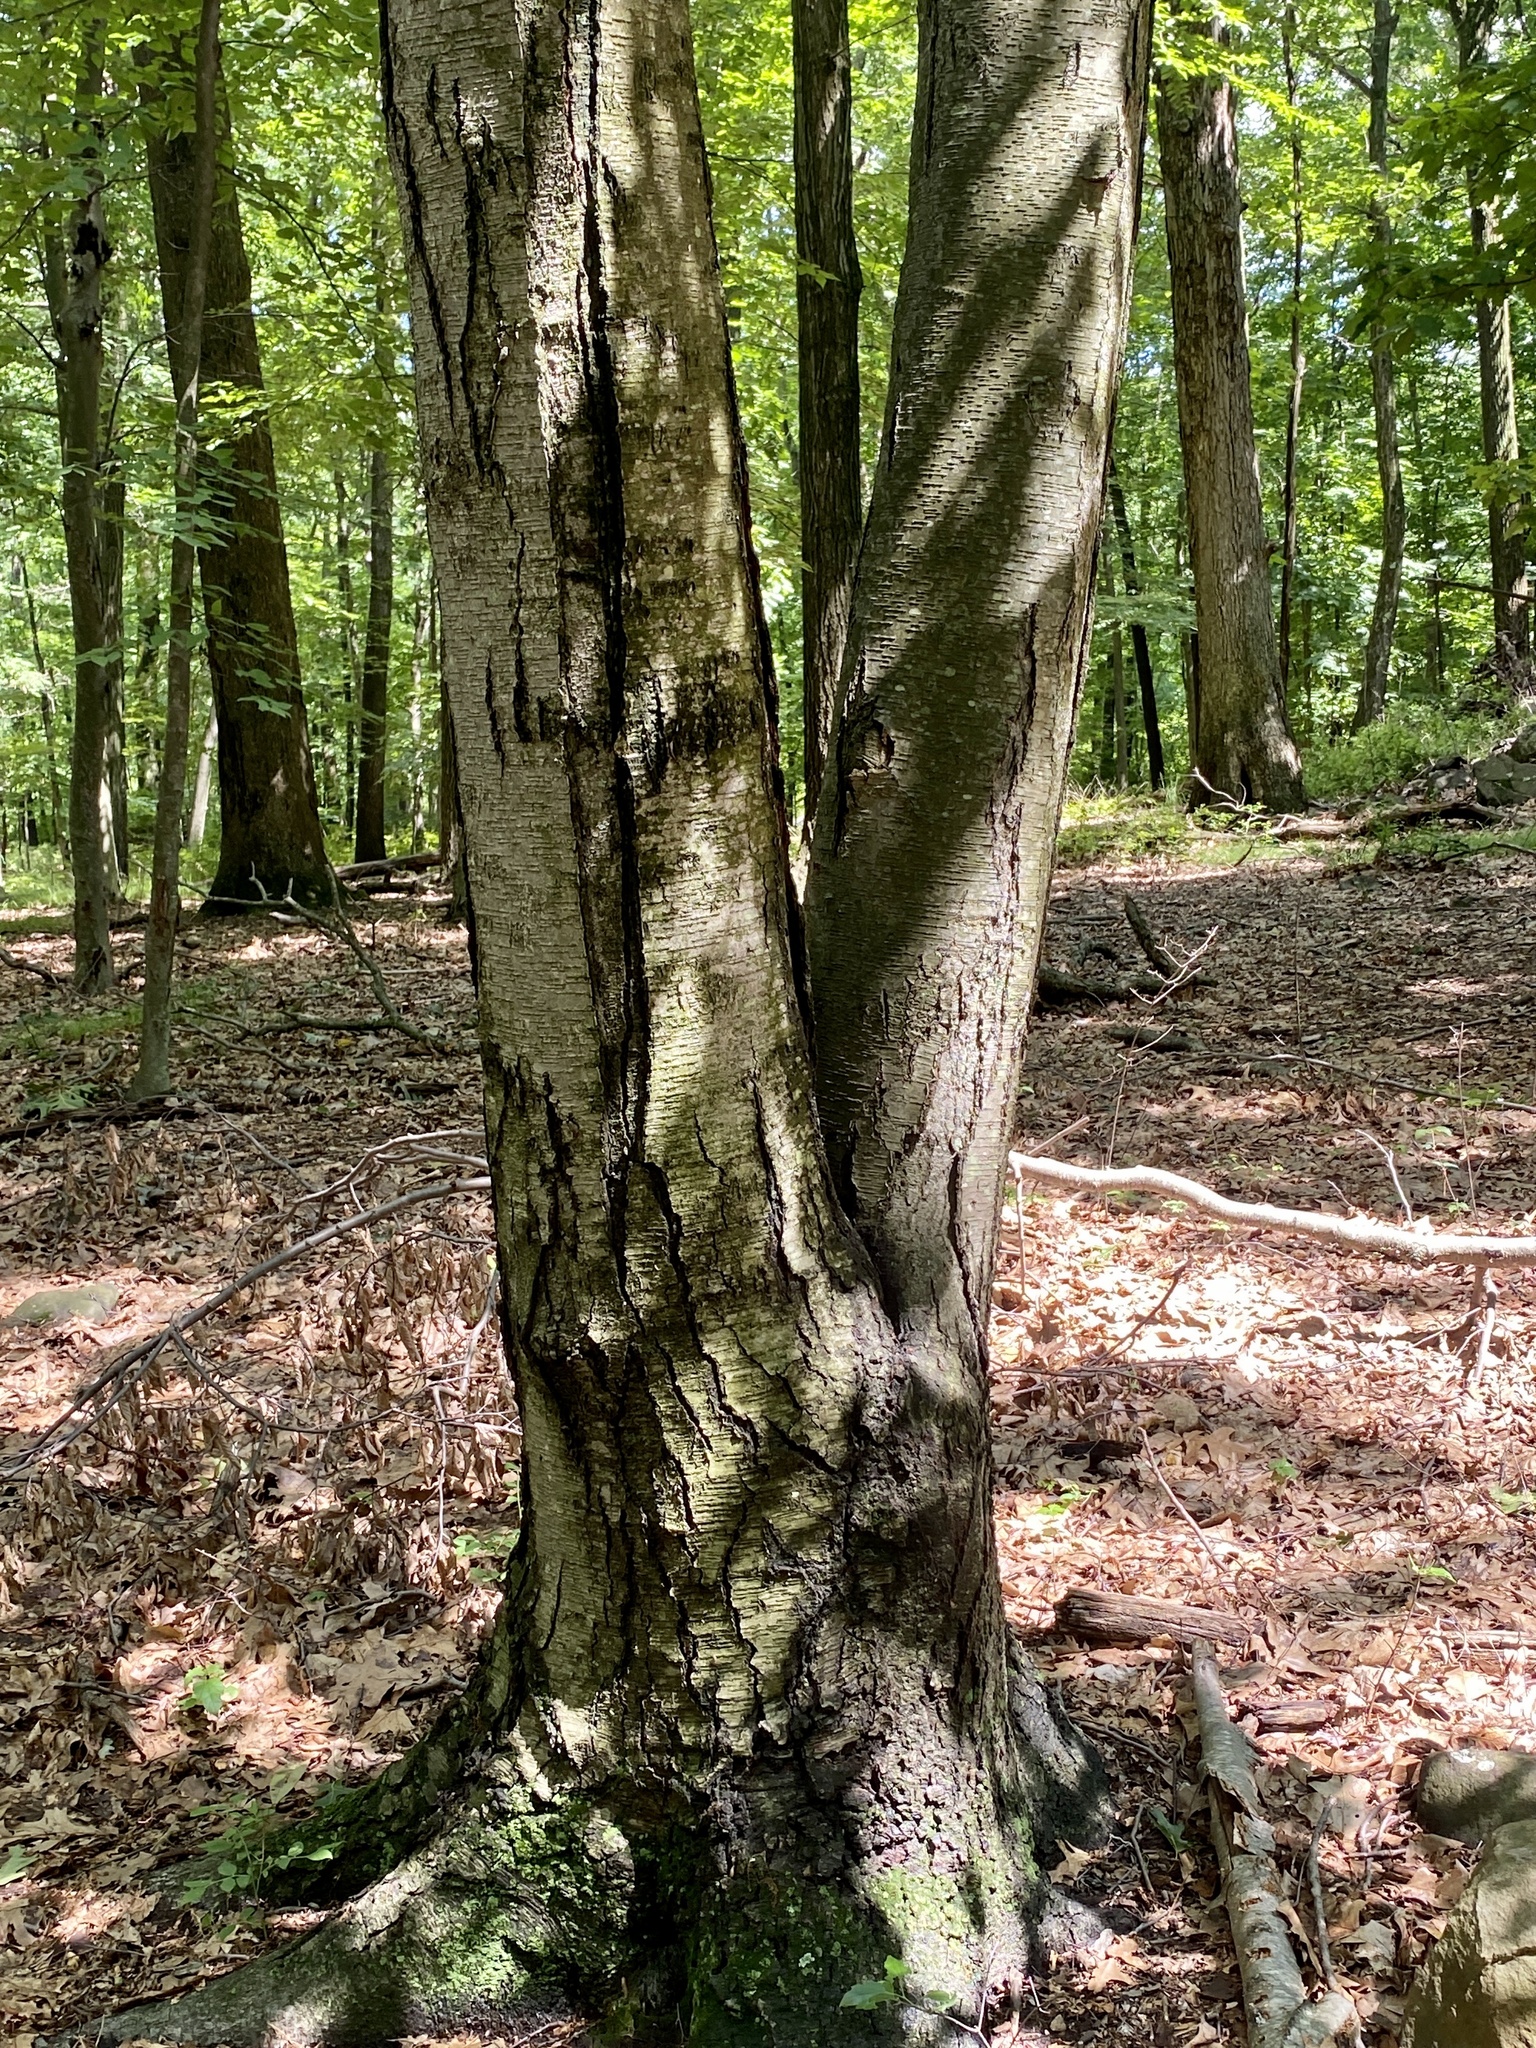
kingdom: Plantae
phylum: Tracheophyta
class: Magnoliopsida
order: Fagales
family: Betulaceae
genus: Betula
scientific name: Betula lenta
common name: Black birch
